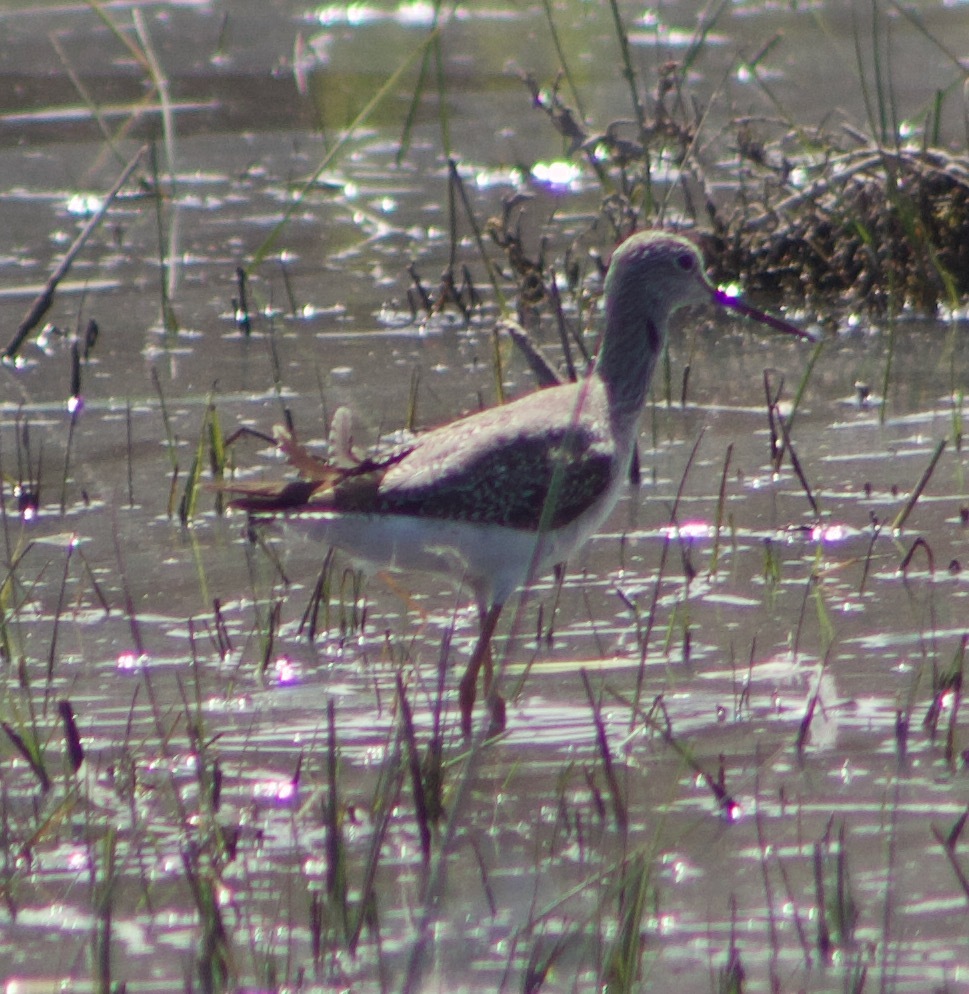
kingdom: Animalia
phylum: Chordata
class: Aves
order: Charadriiformes
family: Scolopacidae
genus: Tringa
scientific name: Tringa flavipes
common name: Lesser yellowlegs
